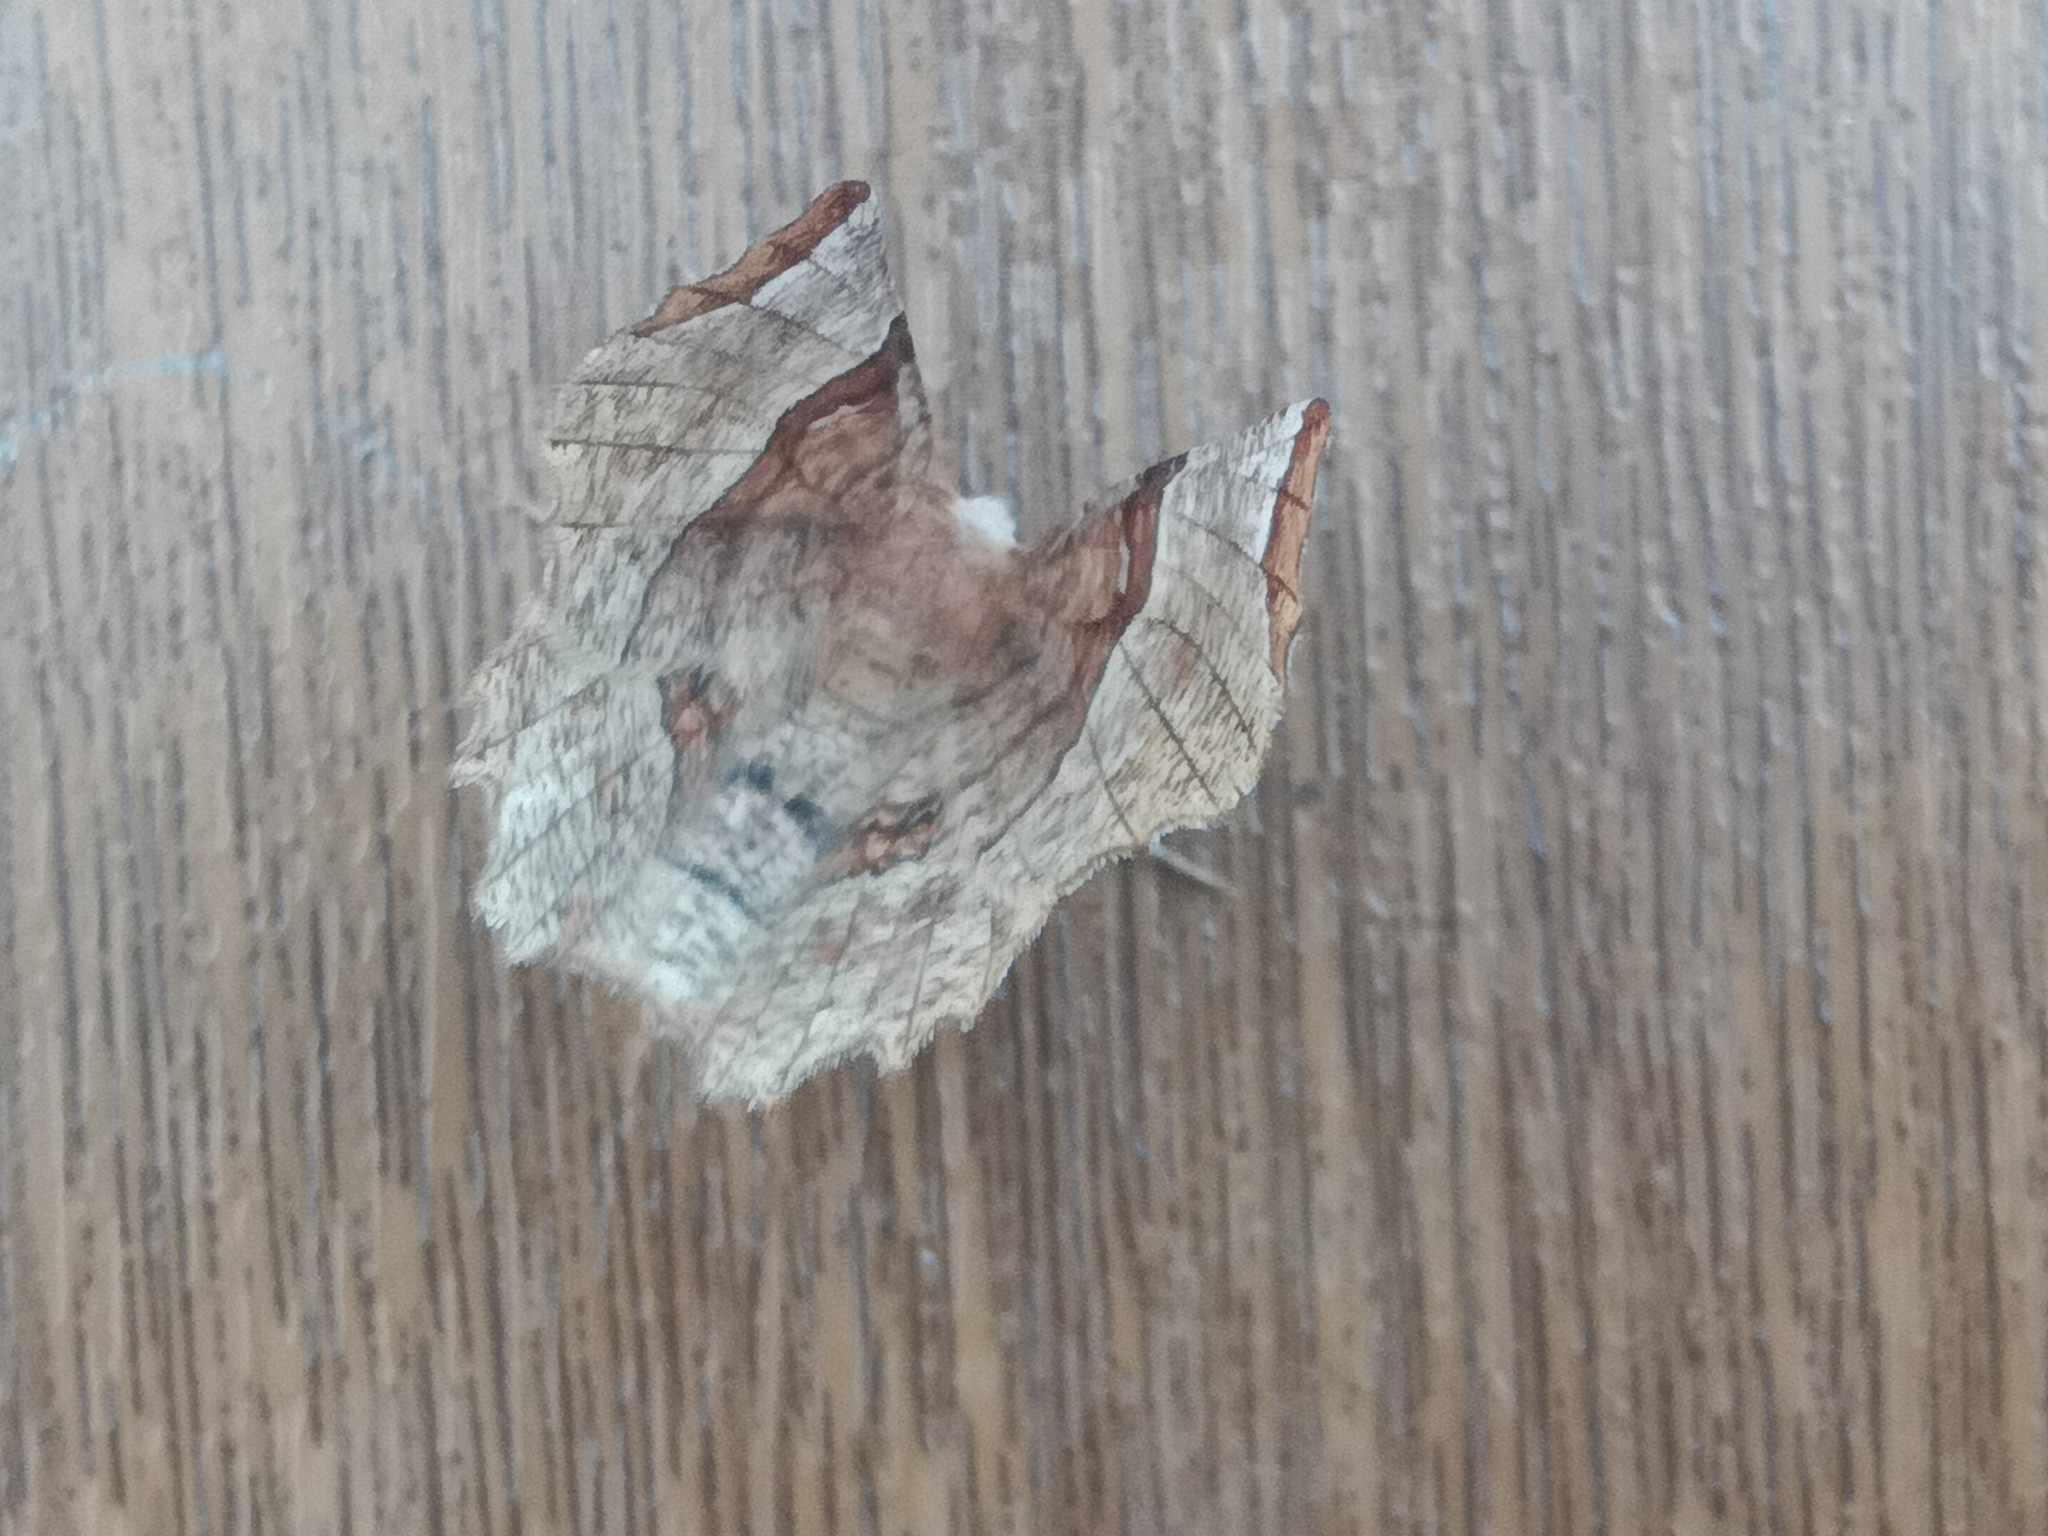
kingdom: Animalia
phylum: Arthropoda
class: Insecta
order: Lepidoptera
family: Geometridae
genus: Selenia
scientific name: Selenia lunularia
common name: Lunar thorn
